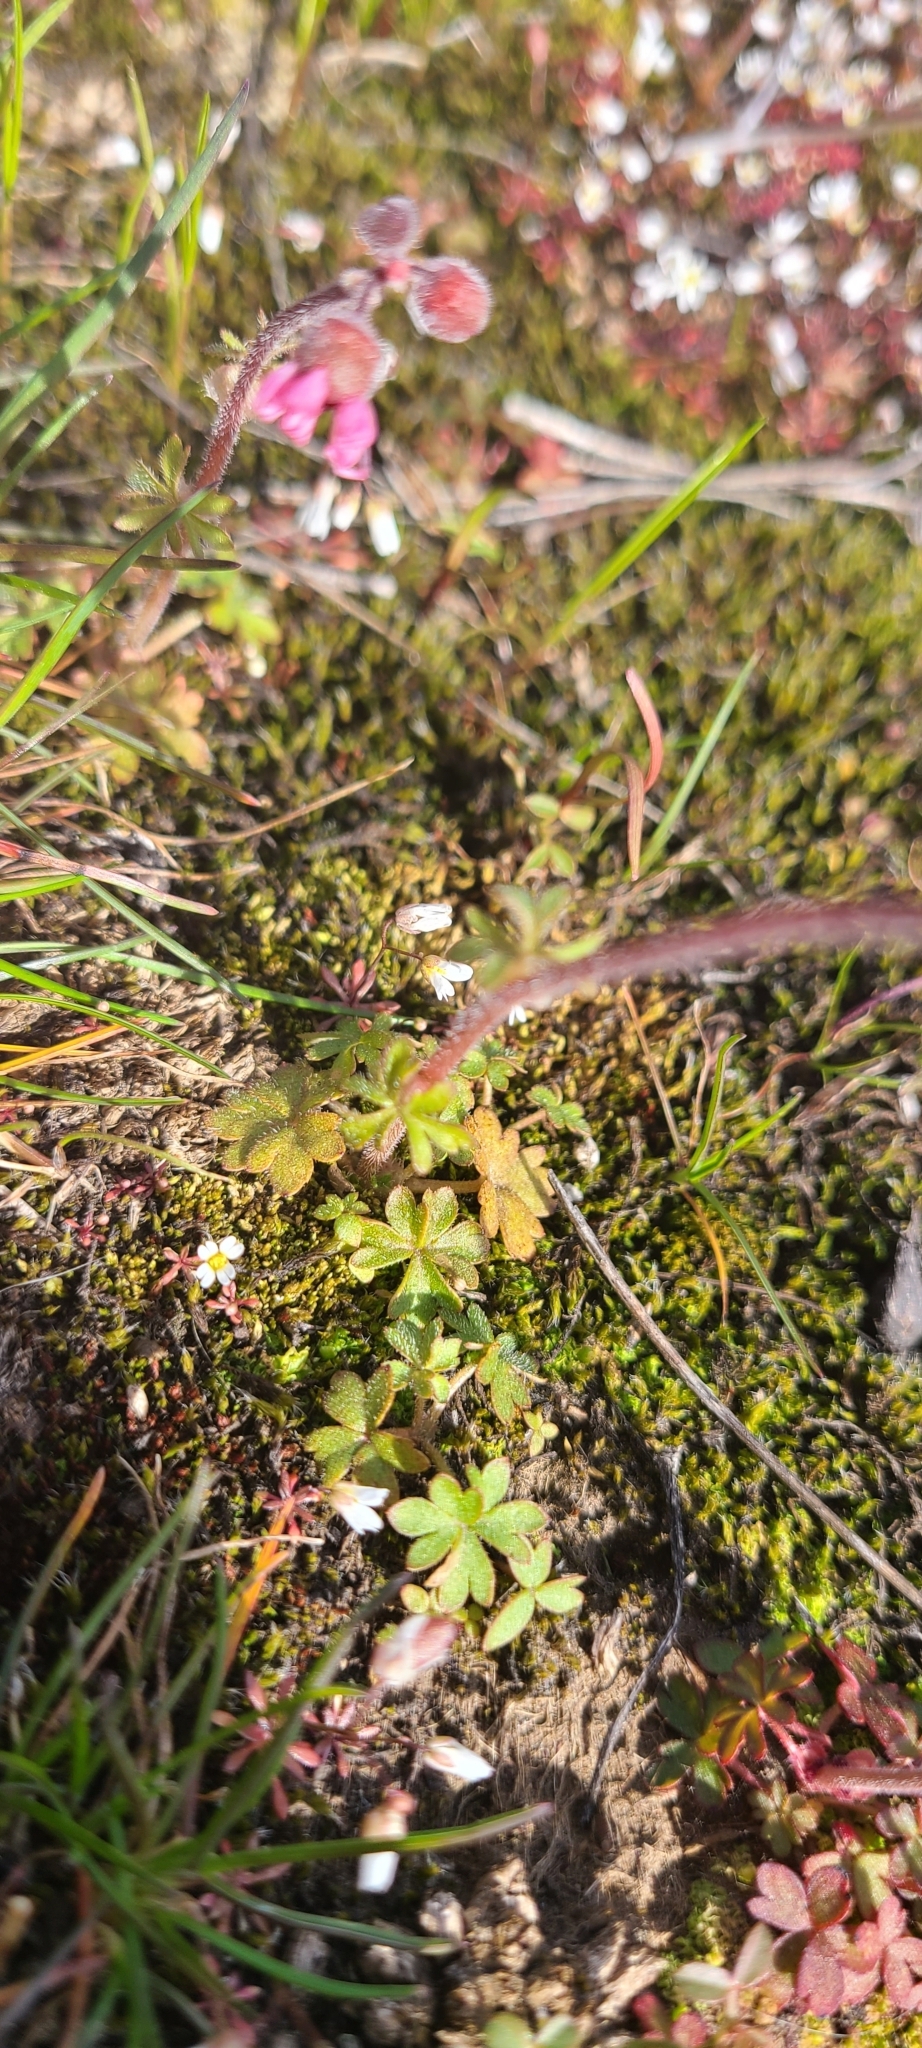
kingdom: Plantae
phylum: Tracheophyta
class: Magnoliopsida
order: Saxifragales
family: Saxifragaceae
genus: Lithophragma
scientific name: Lithophragma glabrum
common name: Bulbous prairie-star
